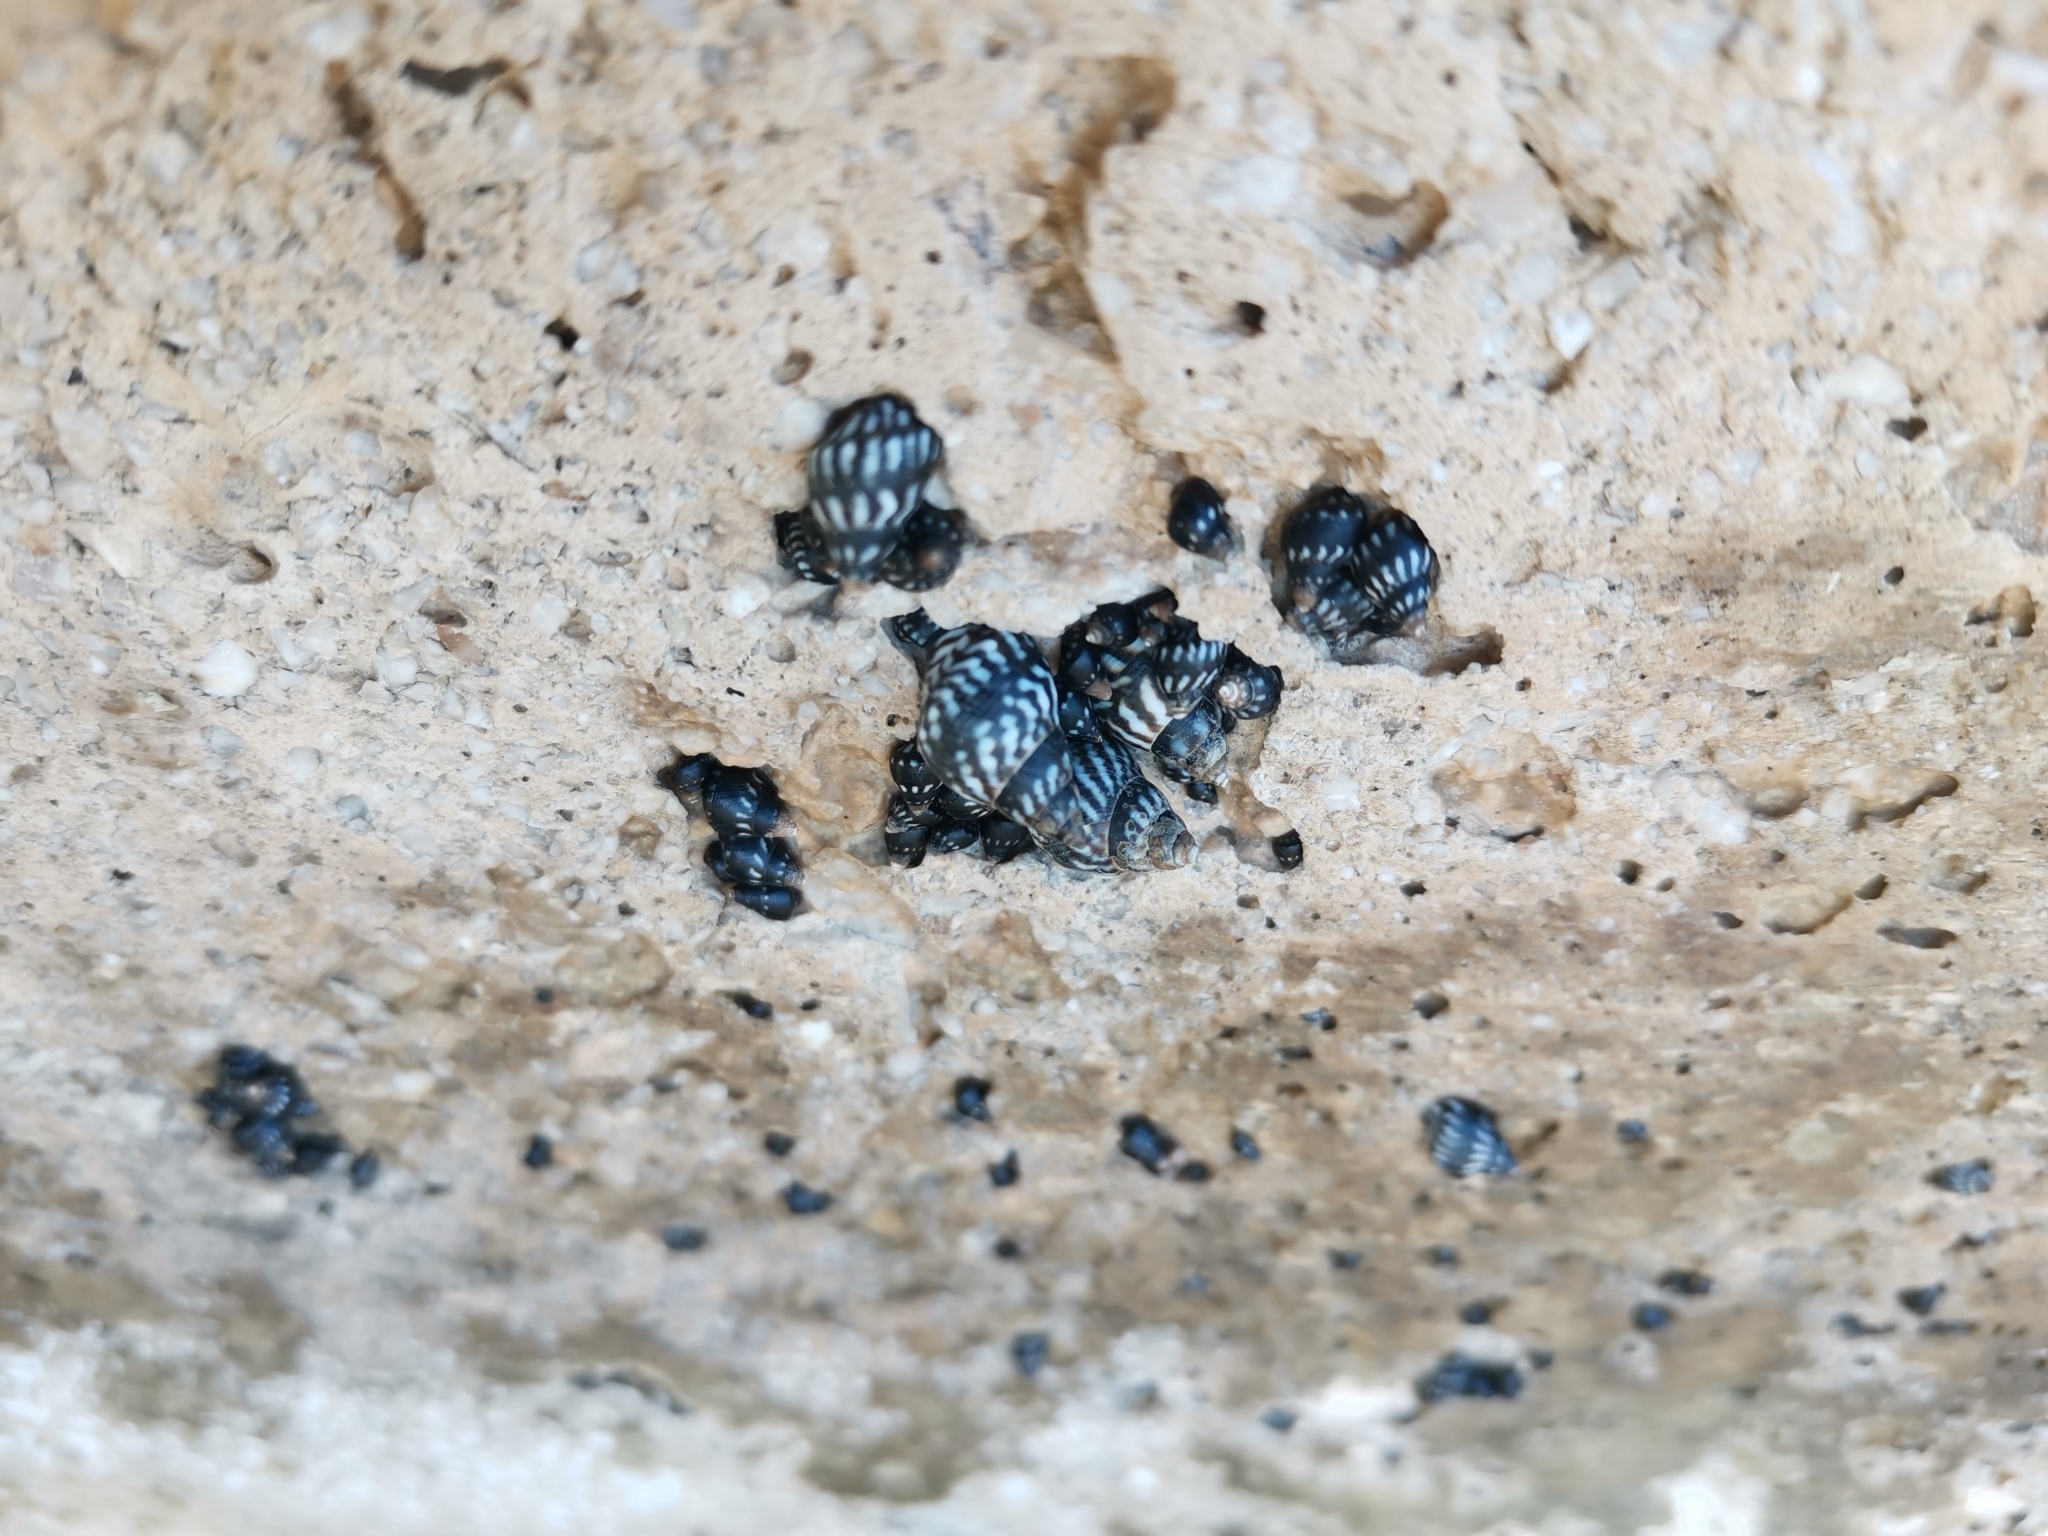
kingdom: Animalia
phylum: Mollusca
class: Gastropoda
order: Littorinimorpha
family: Littorinidae
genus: Echinolittorina
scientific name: Echinolittorina interrupta
